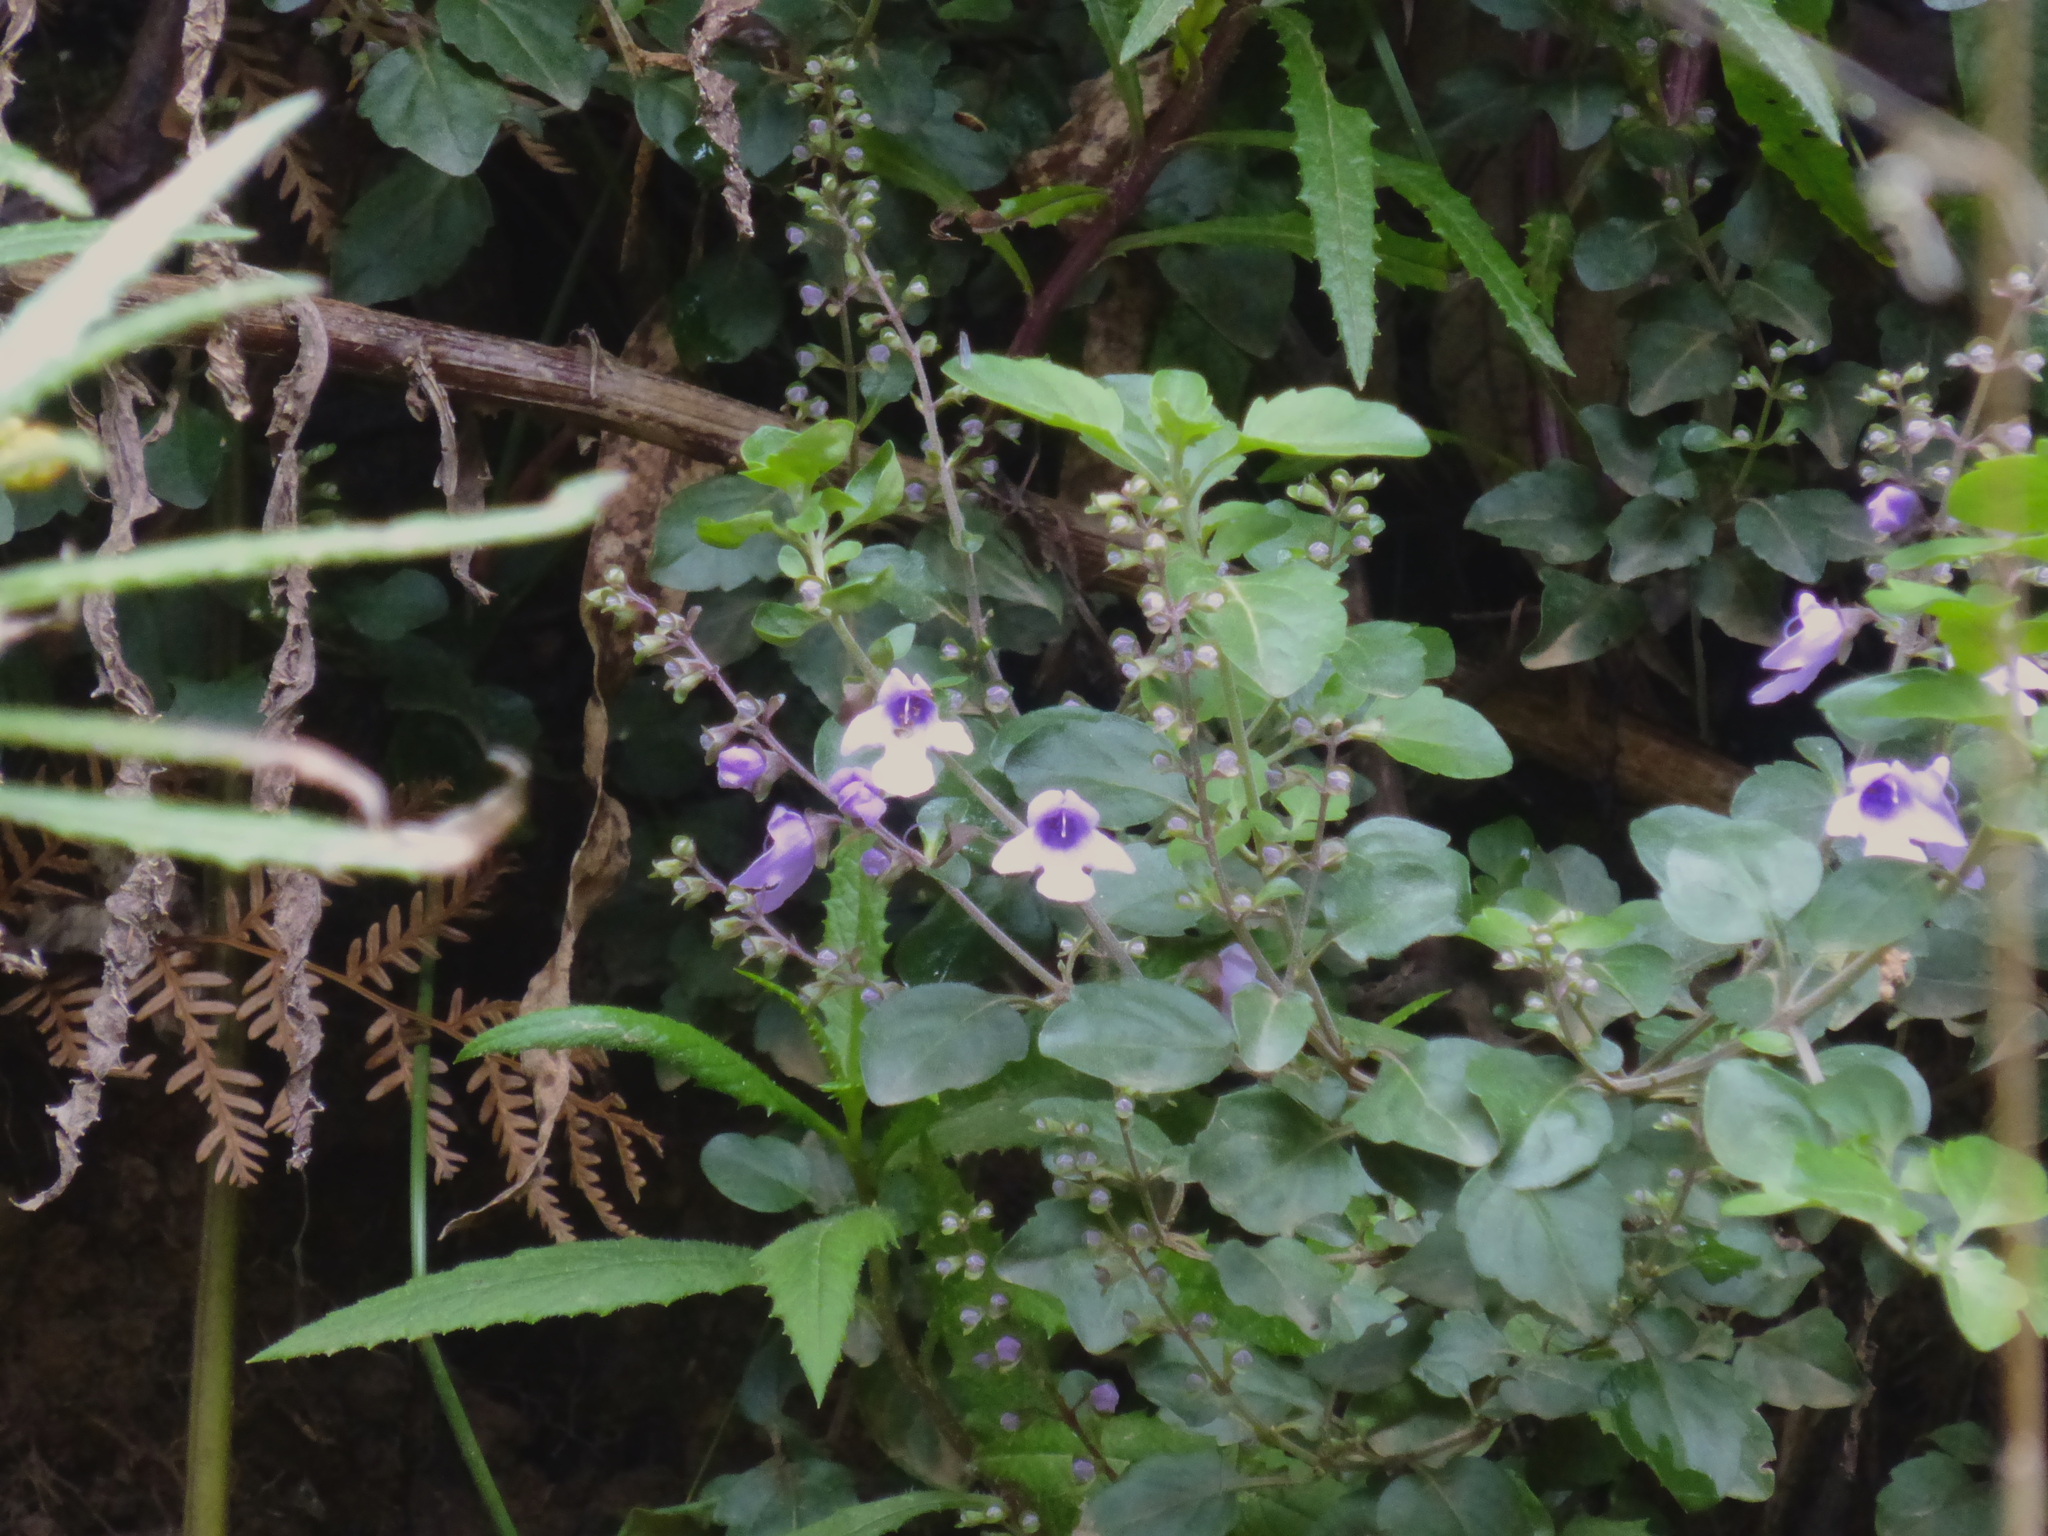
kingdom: Plantae
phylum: Tracheophyta
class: Magnoliopsida
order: Lamiales
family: Lamiaceae
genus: Prostanthera
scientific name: Prostanthera melissifolia
